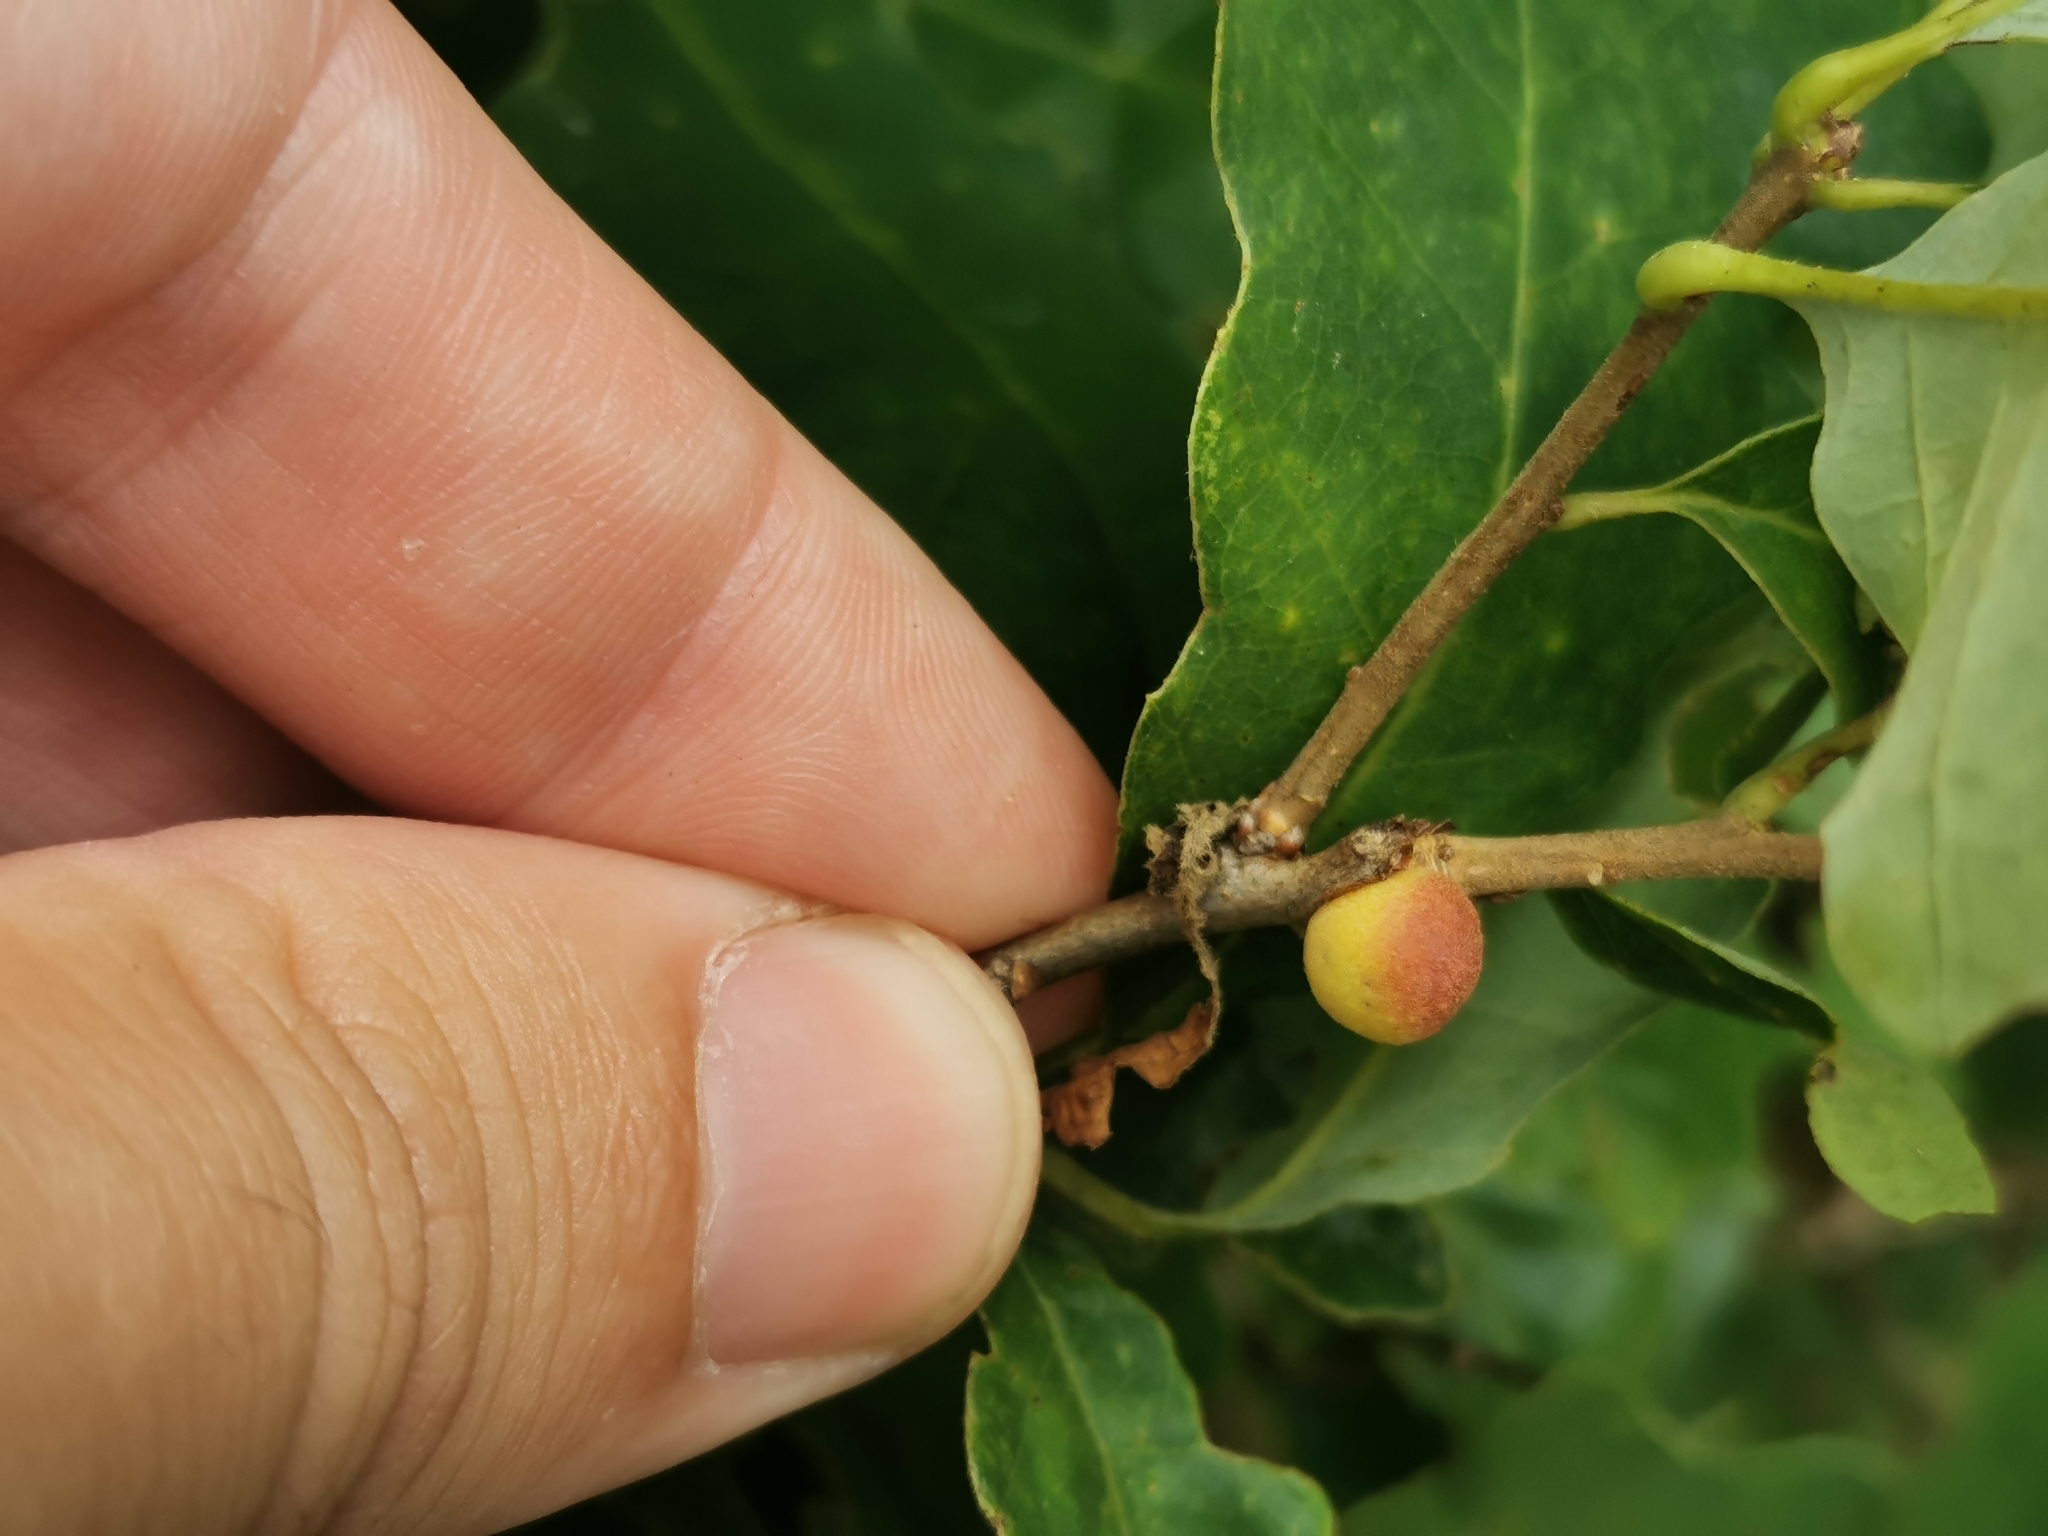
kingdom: Animalia
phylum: Arthropoda
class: Insecta
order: Hymenoptera
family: Cynipidae
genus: Disholcaspis
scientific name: Disholcaspis quercusglobulus
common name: Round bullet gall wasp
